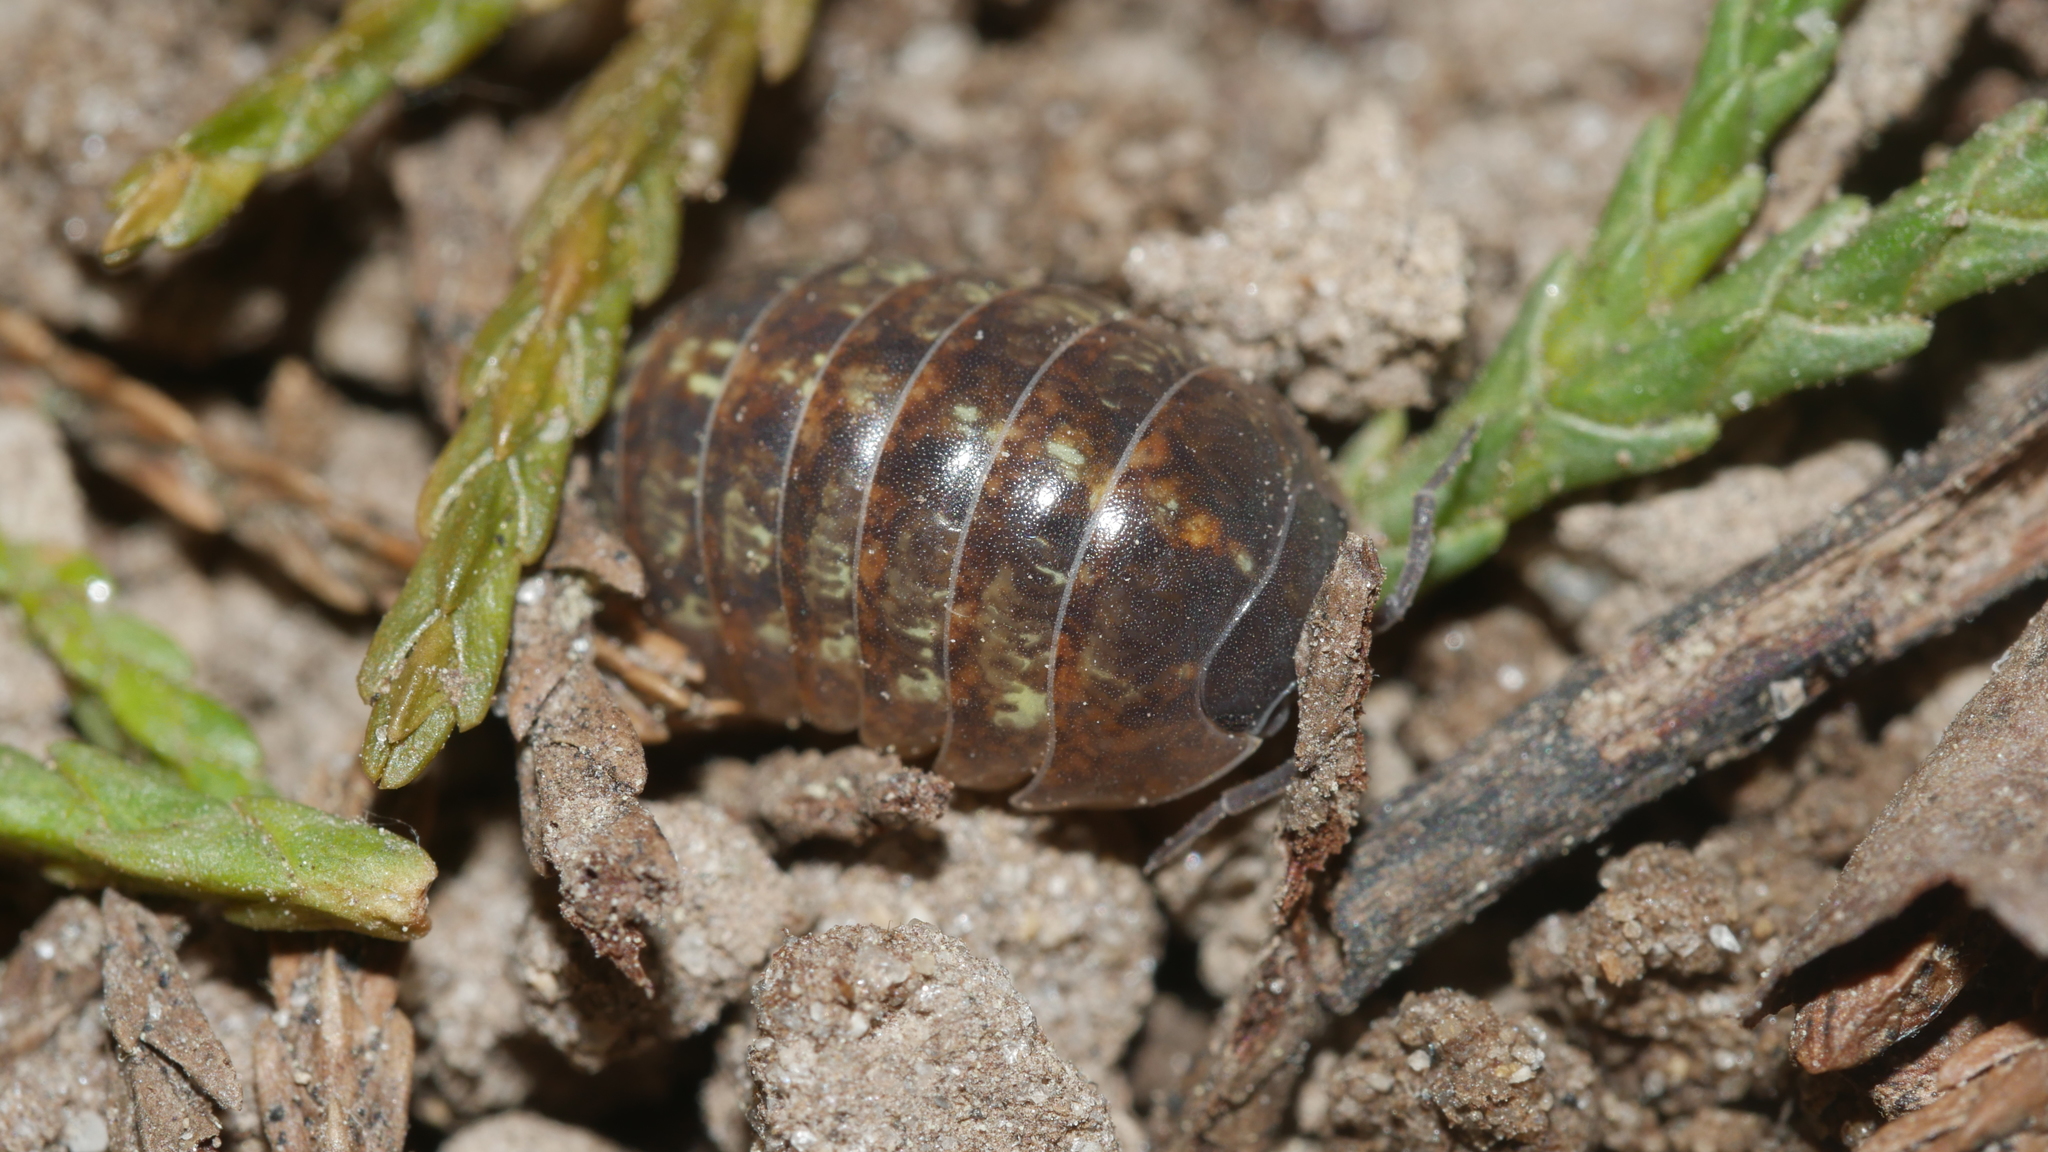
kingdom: Animalia
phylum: Arthropoda
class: Malacostraca
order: Isopoda
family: Armadillidiidae
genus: Armadillidium
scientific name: Armadillidium vulgare
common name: Common pill woodlouse
